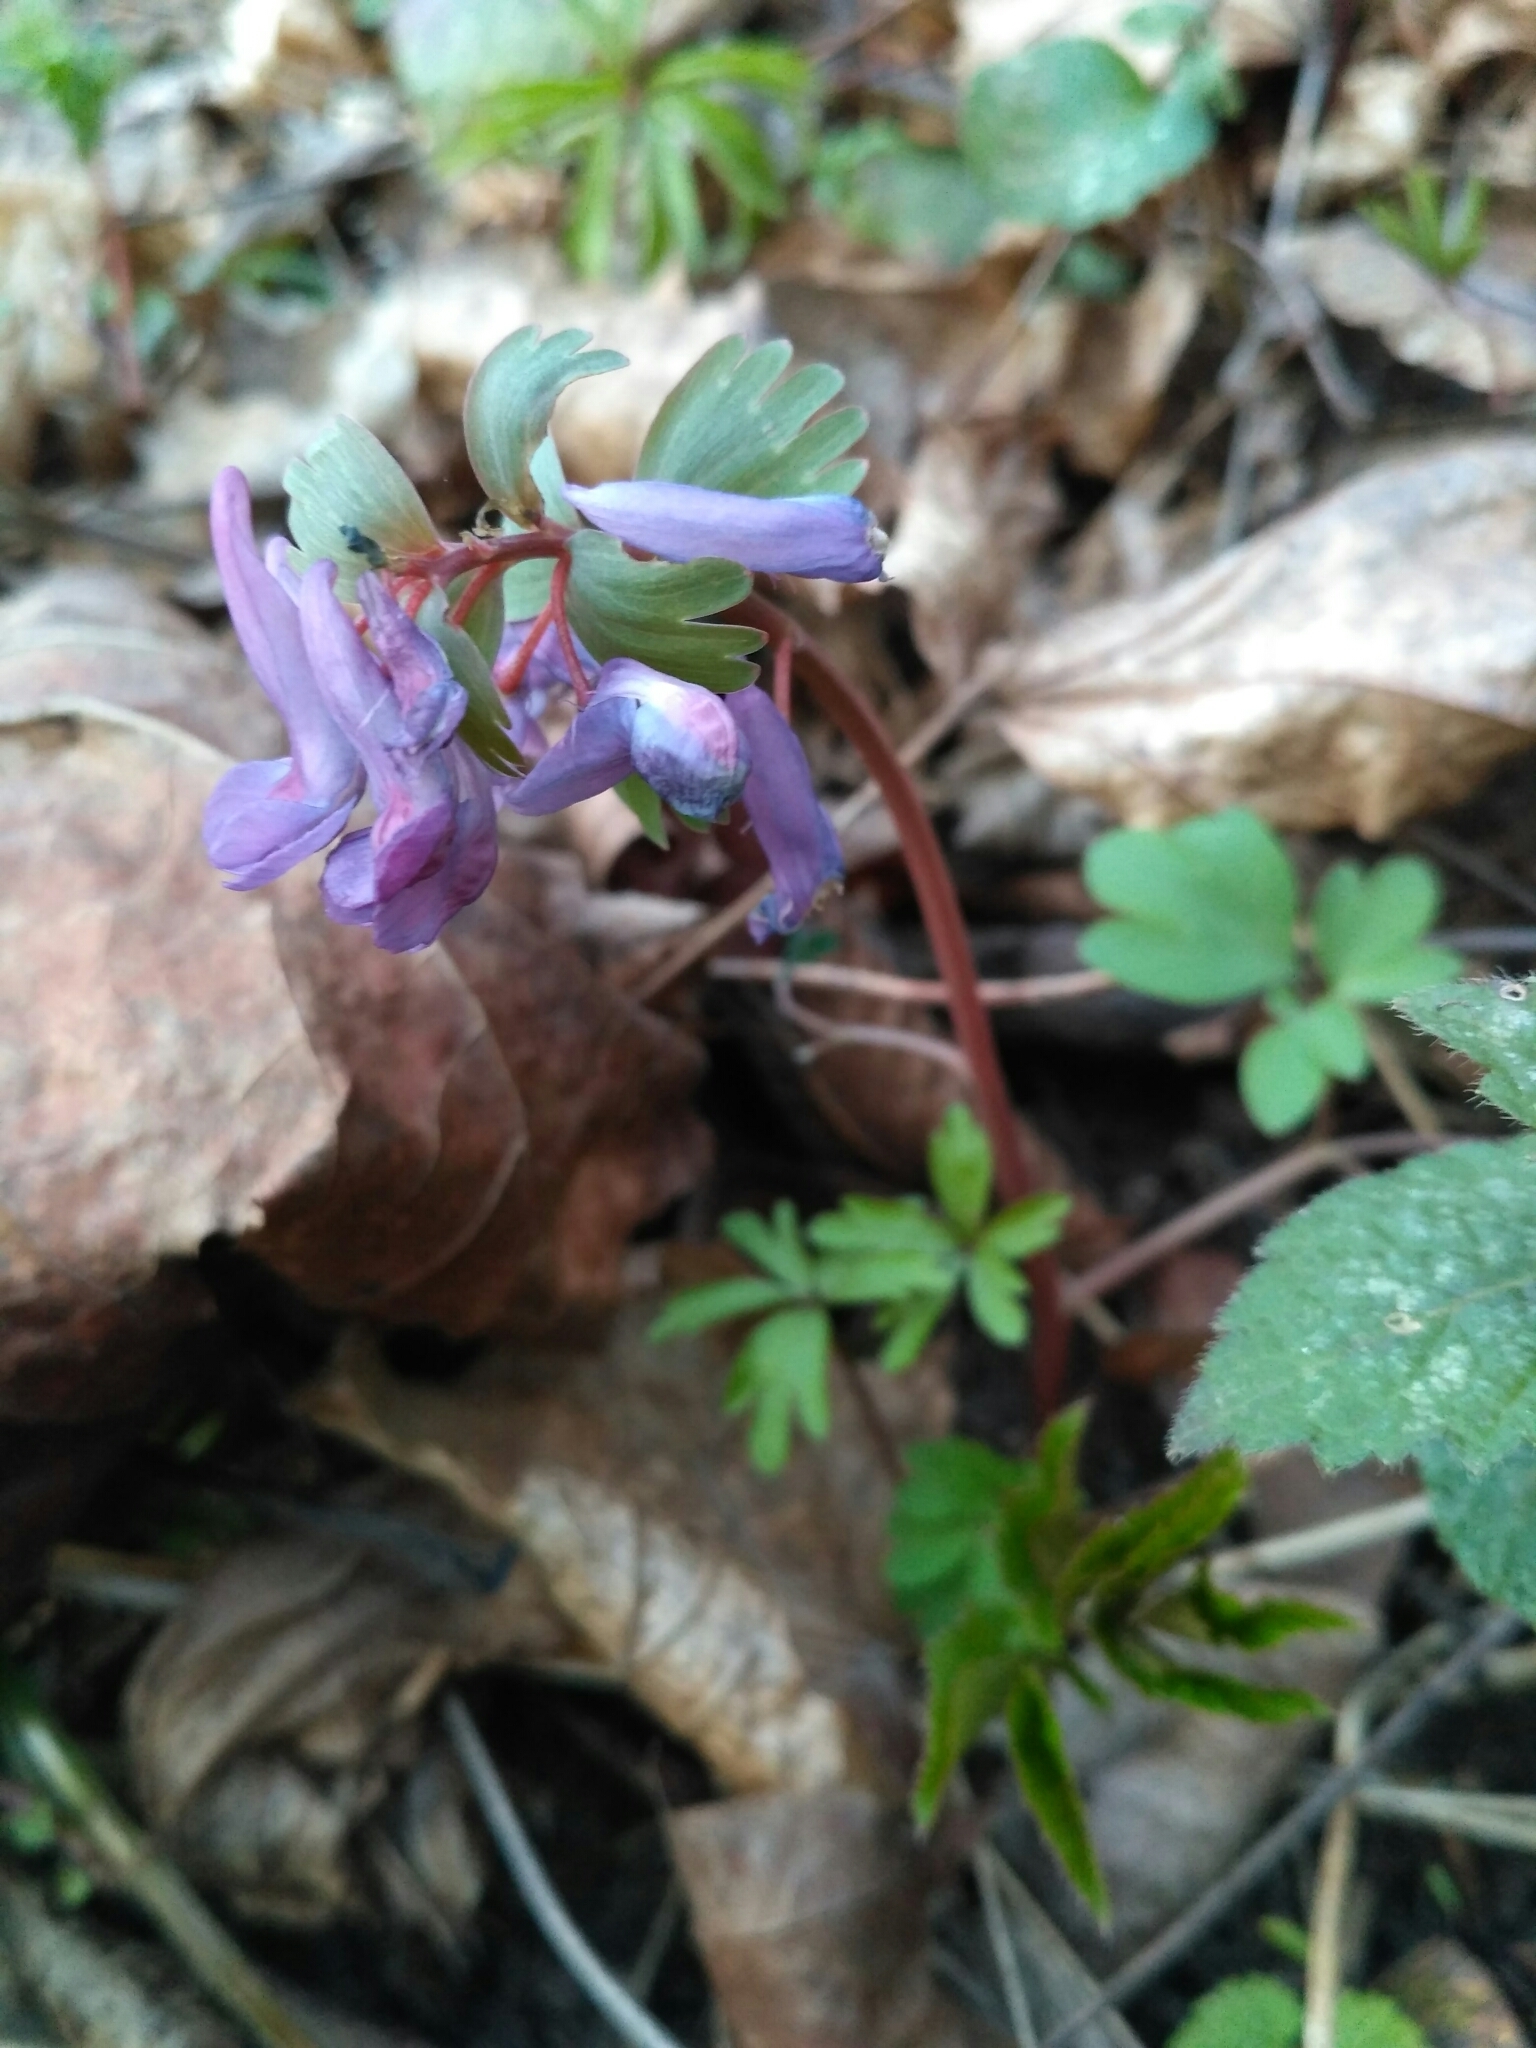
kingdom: Plantae
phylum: Tracheophyta
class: Magnoliopsida
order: Ranunculales
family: Papaveraceae
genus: Corydalis
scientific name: Corydalis solida
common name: Bird-in-a-bush
